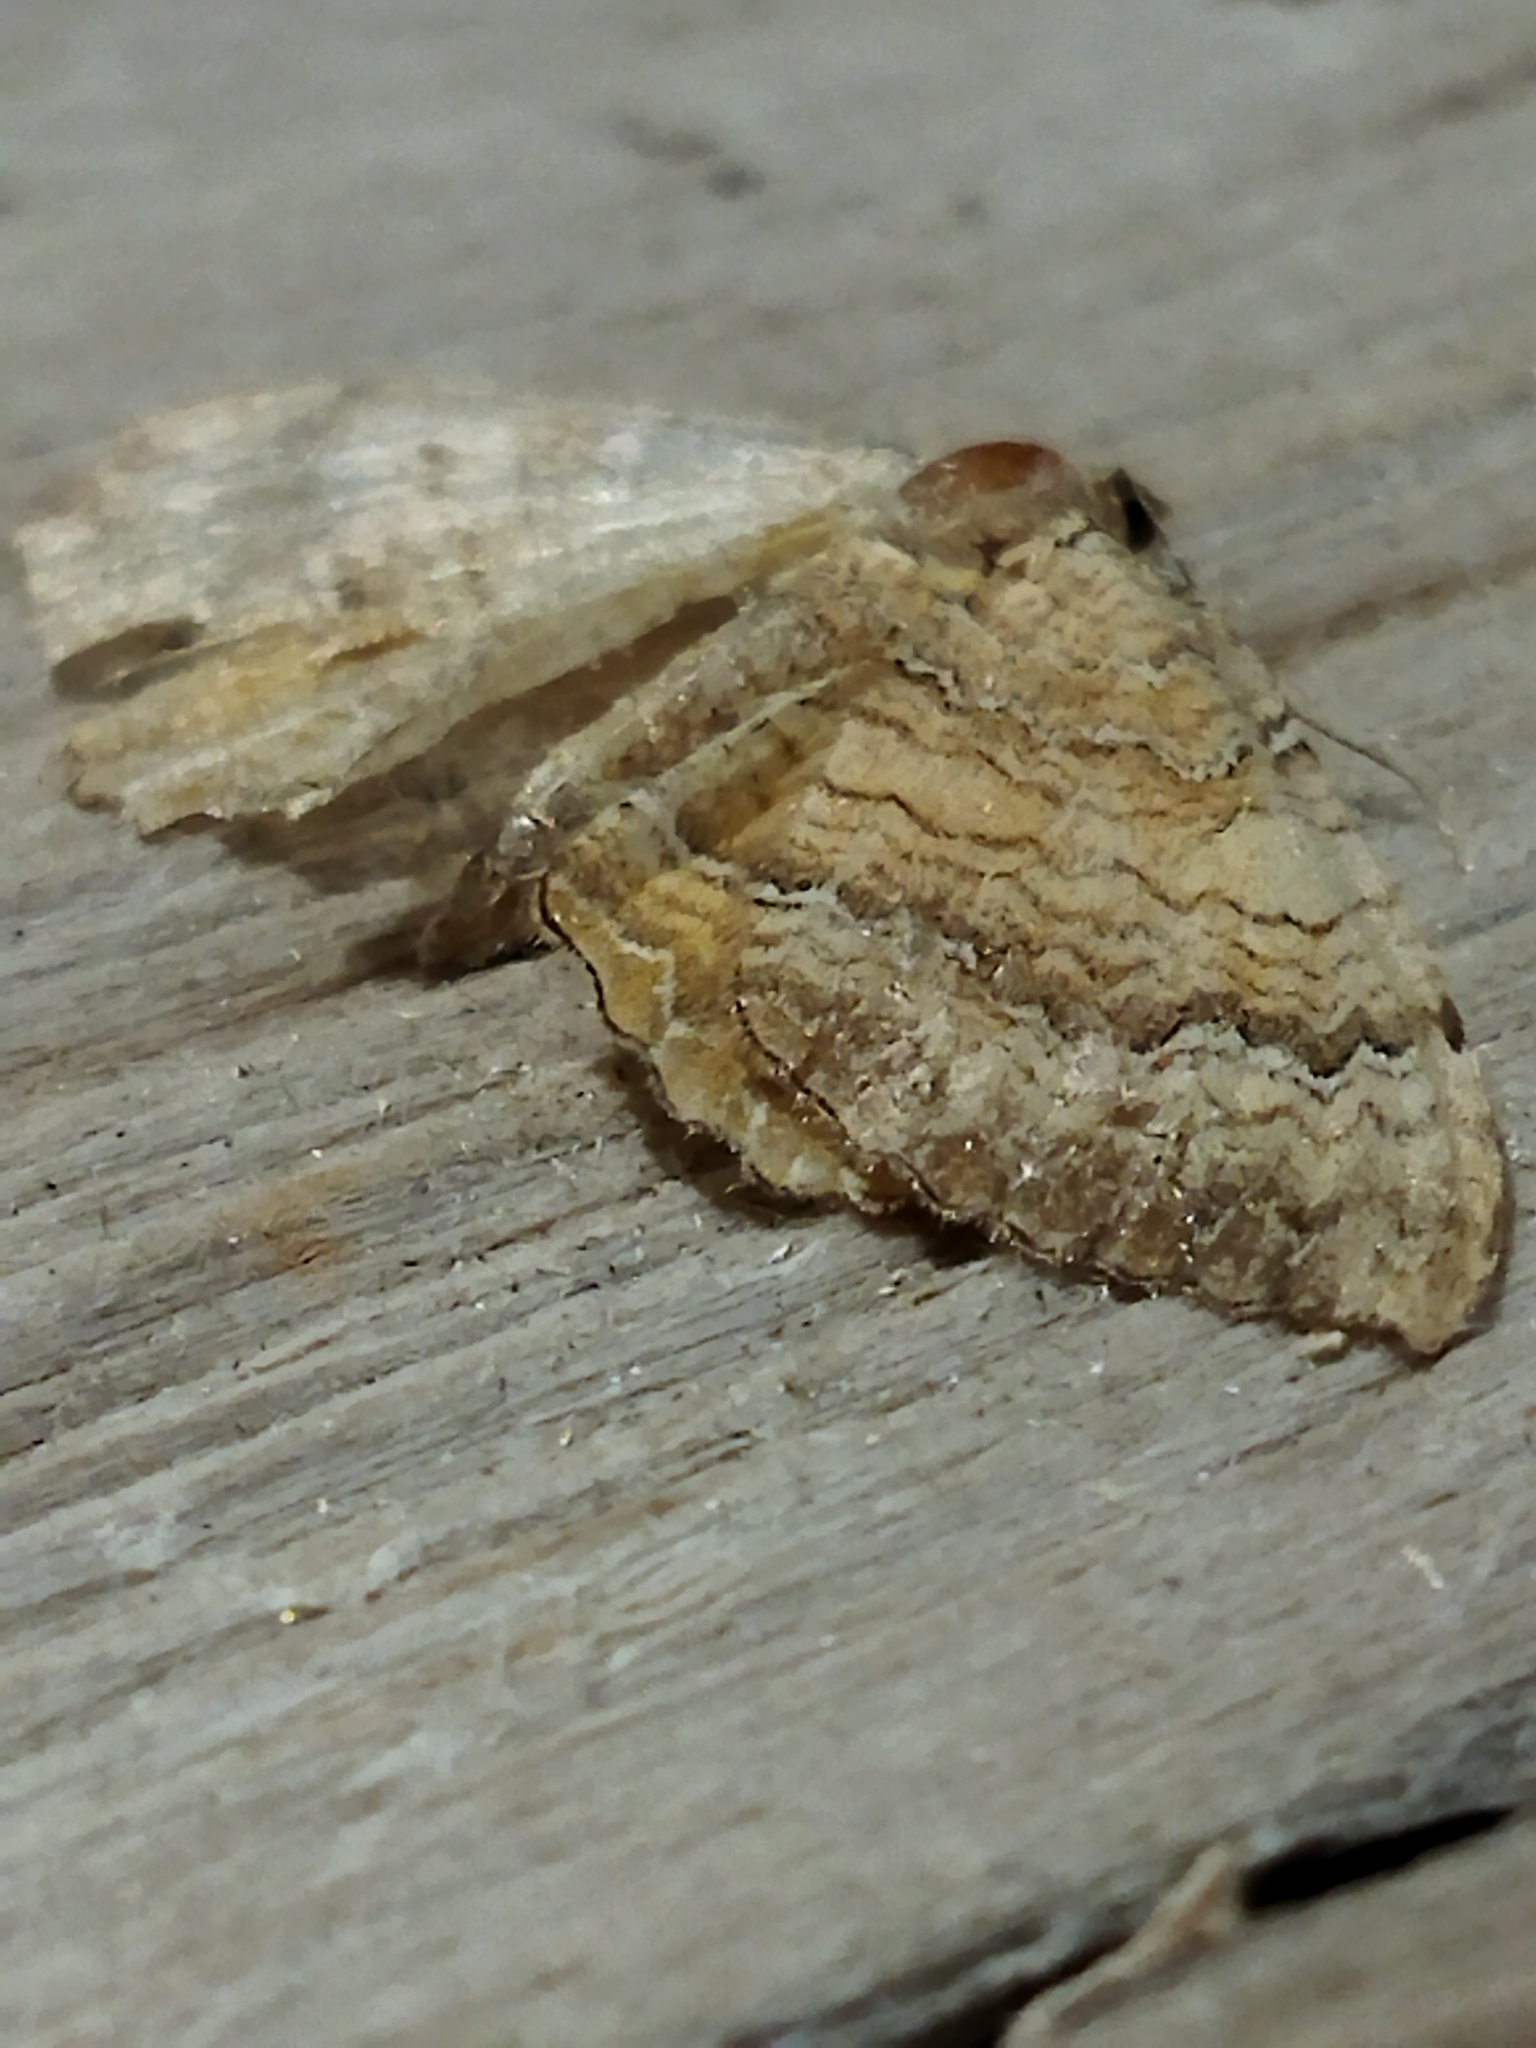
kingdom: Animalia
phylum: Arthropoda
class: Insecta
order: Lepidoptera
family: Geometridae
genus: Camptogramma
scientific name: Camptogramma bilineata
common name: Yellow shell
